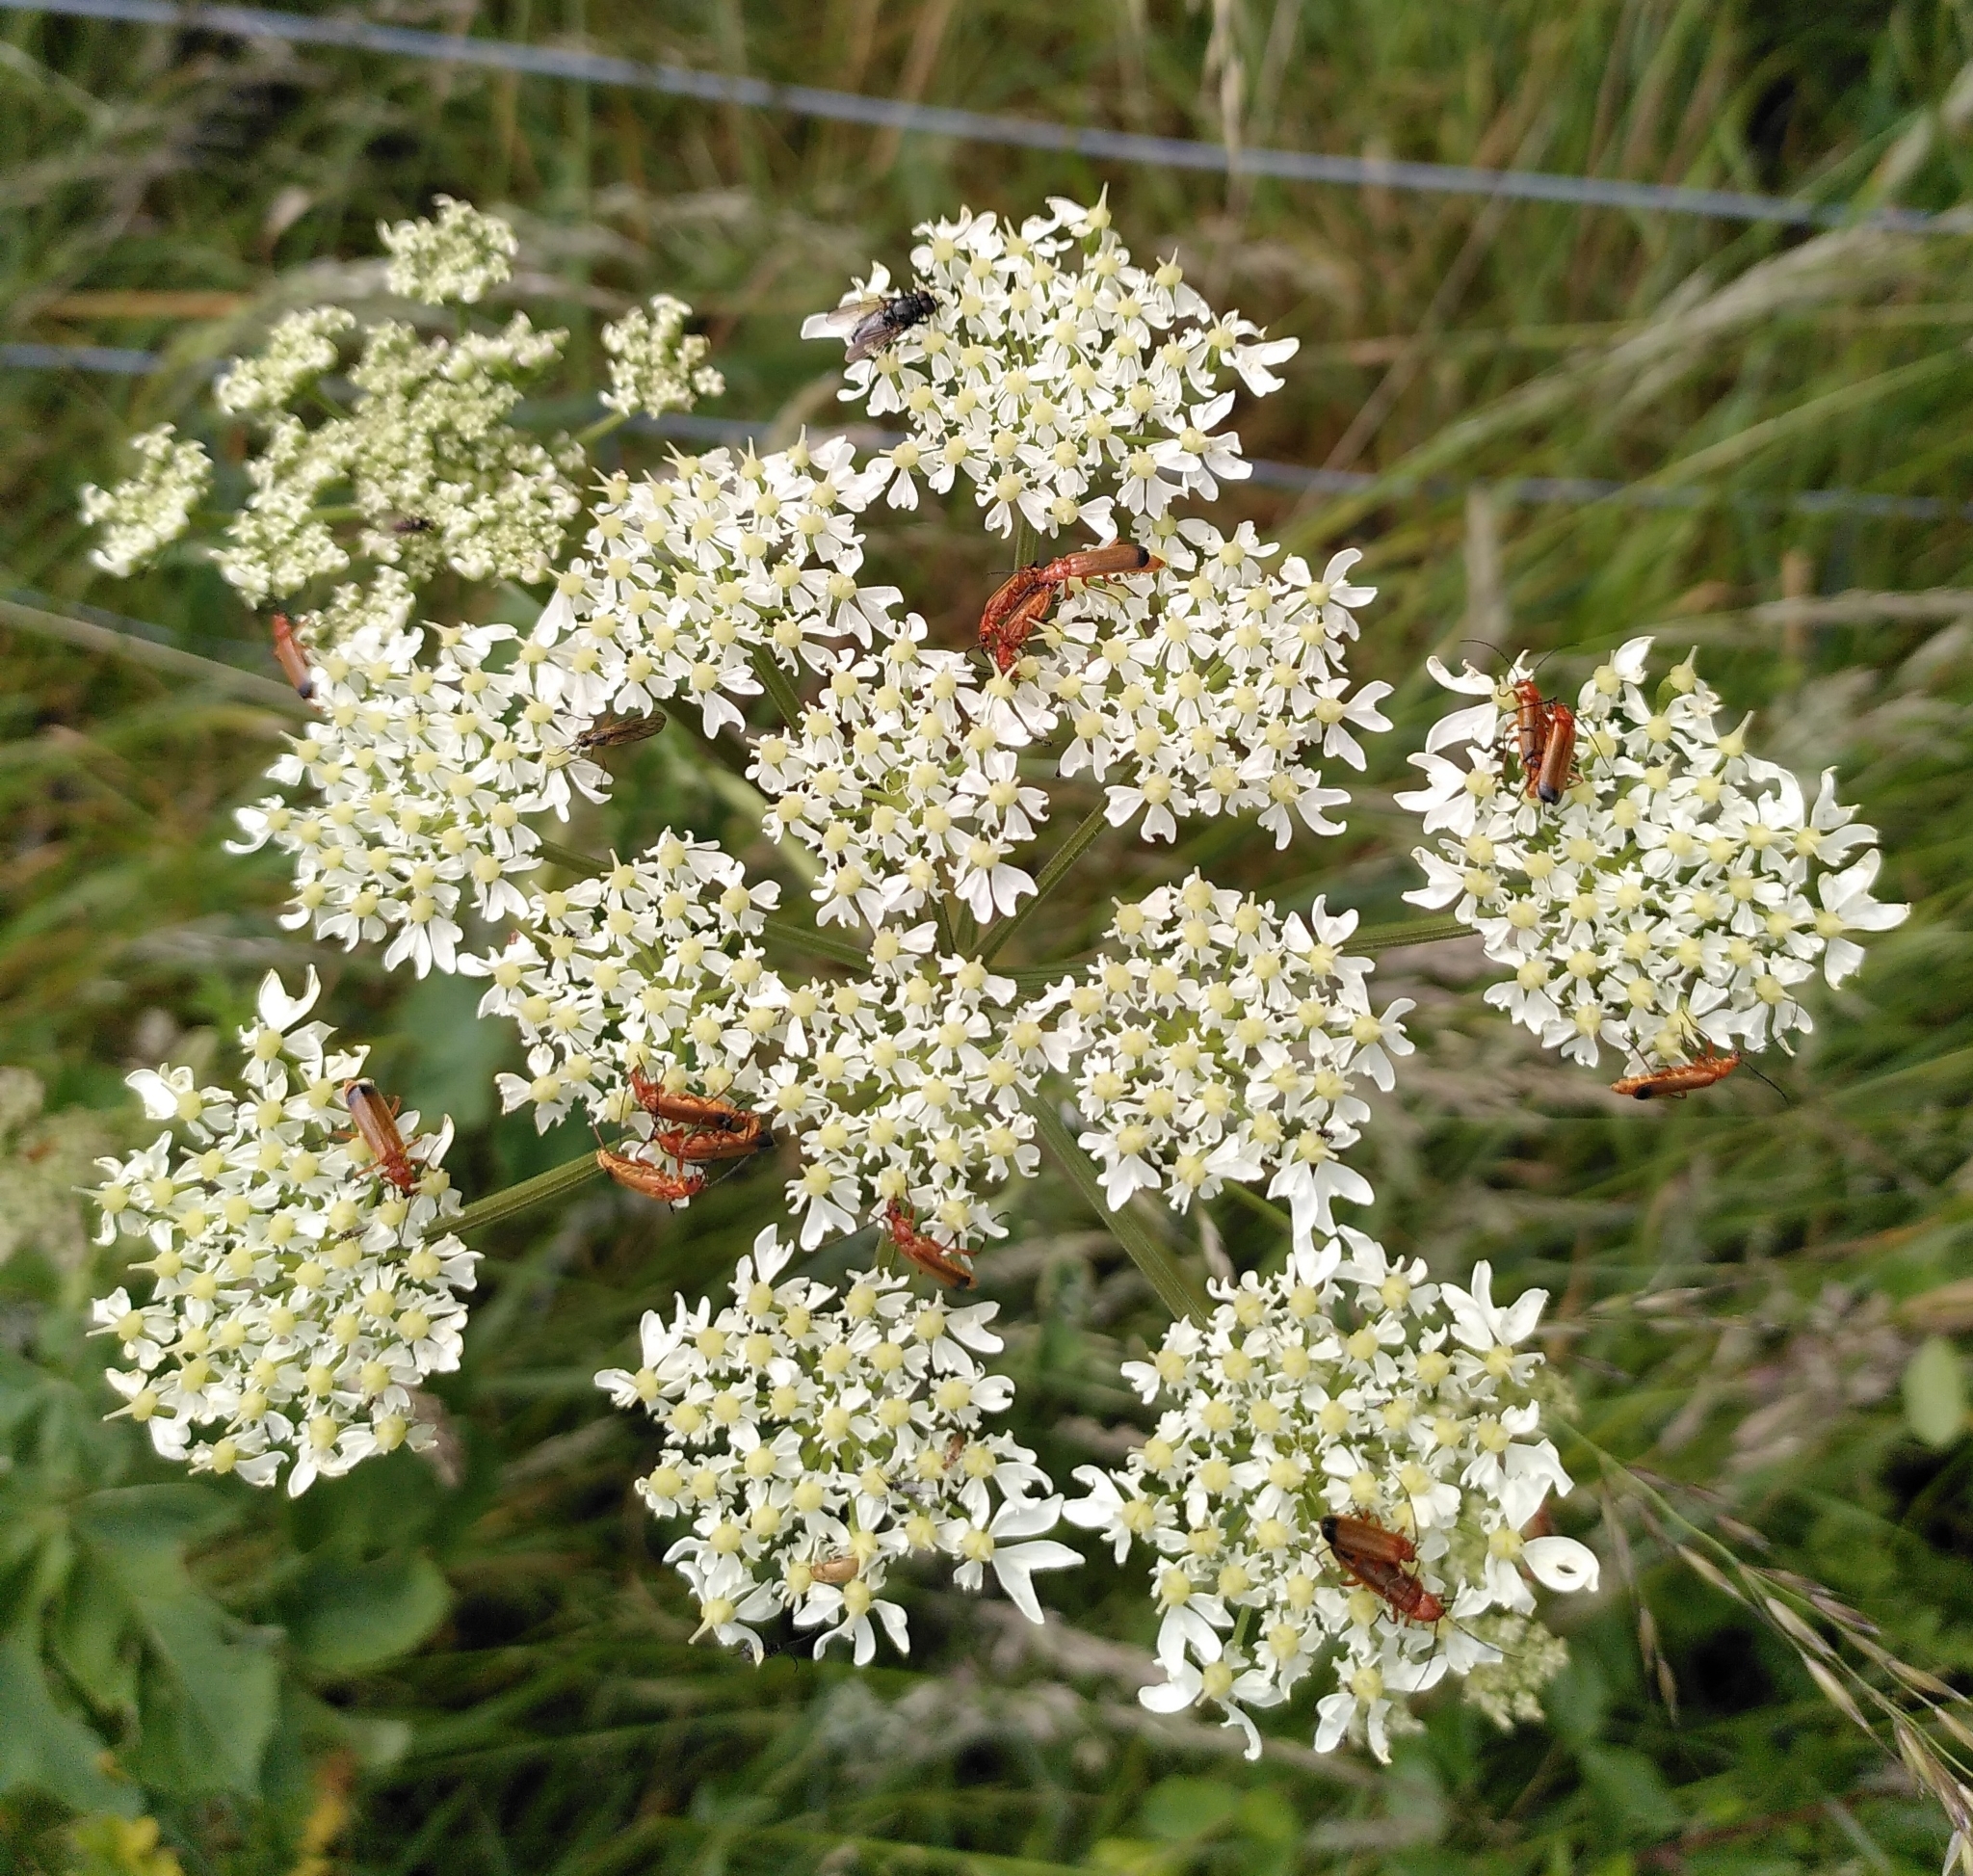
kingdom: Animalia
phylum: Arthropoda
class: Insecta
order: Coleoptera
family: Cantharidae
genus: Rhagonycha
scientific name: Rhagonycha fulva
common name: Common red soldier beetle
